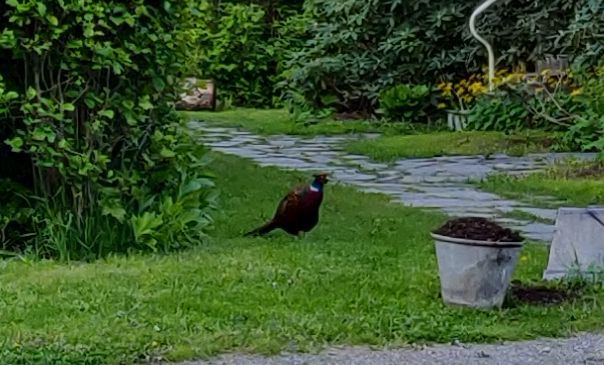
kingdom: Animalia
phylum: Chordata
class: Aves
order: Galliformes
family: Phasianidae
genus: Phasianus
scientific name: Phasianus colchicus
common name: Common pheasant
